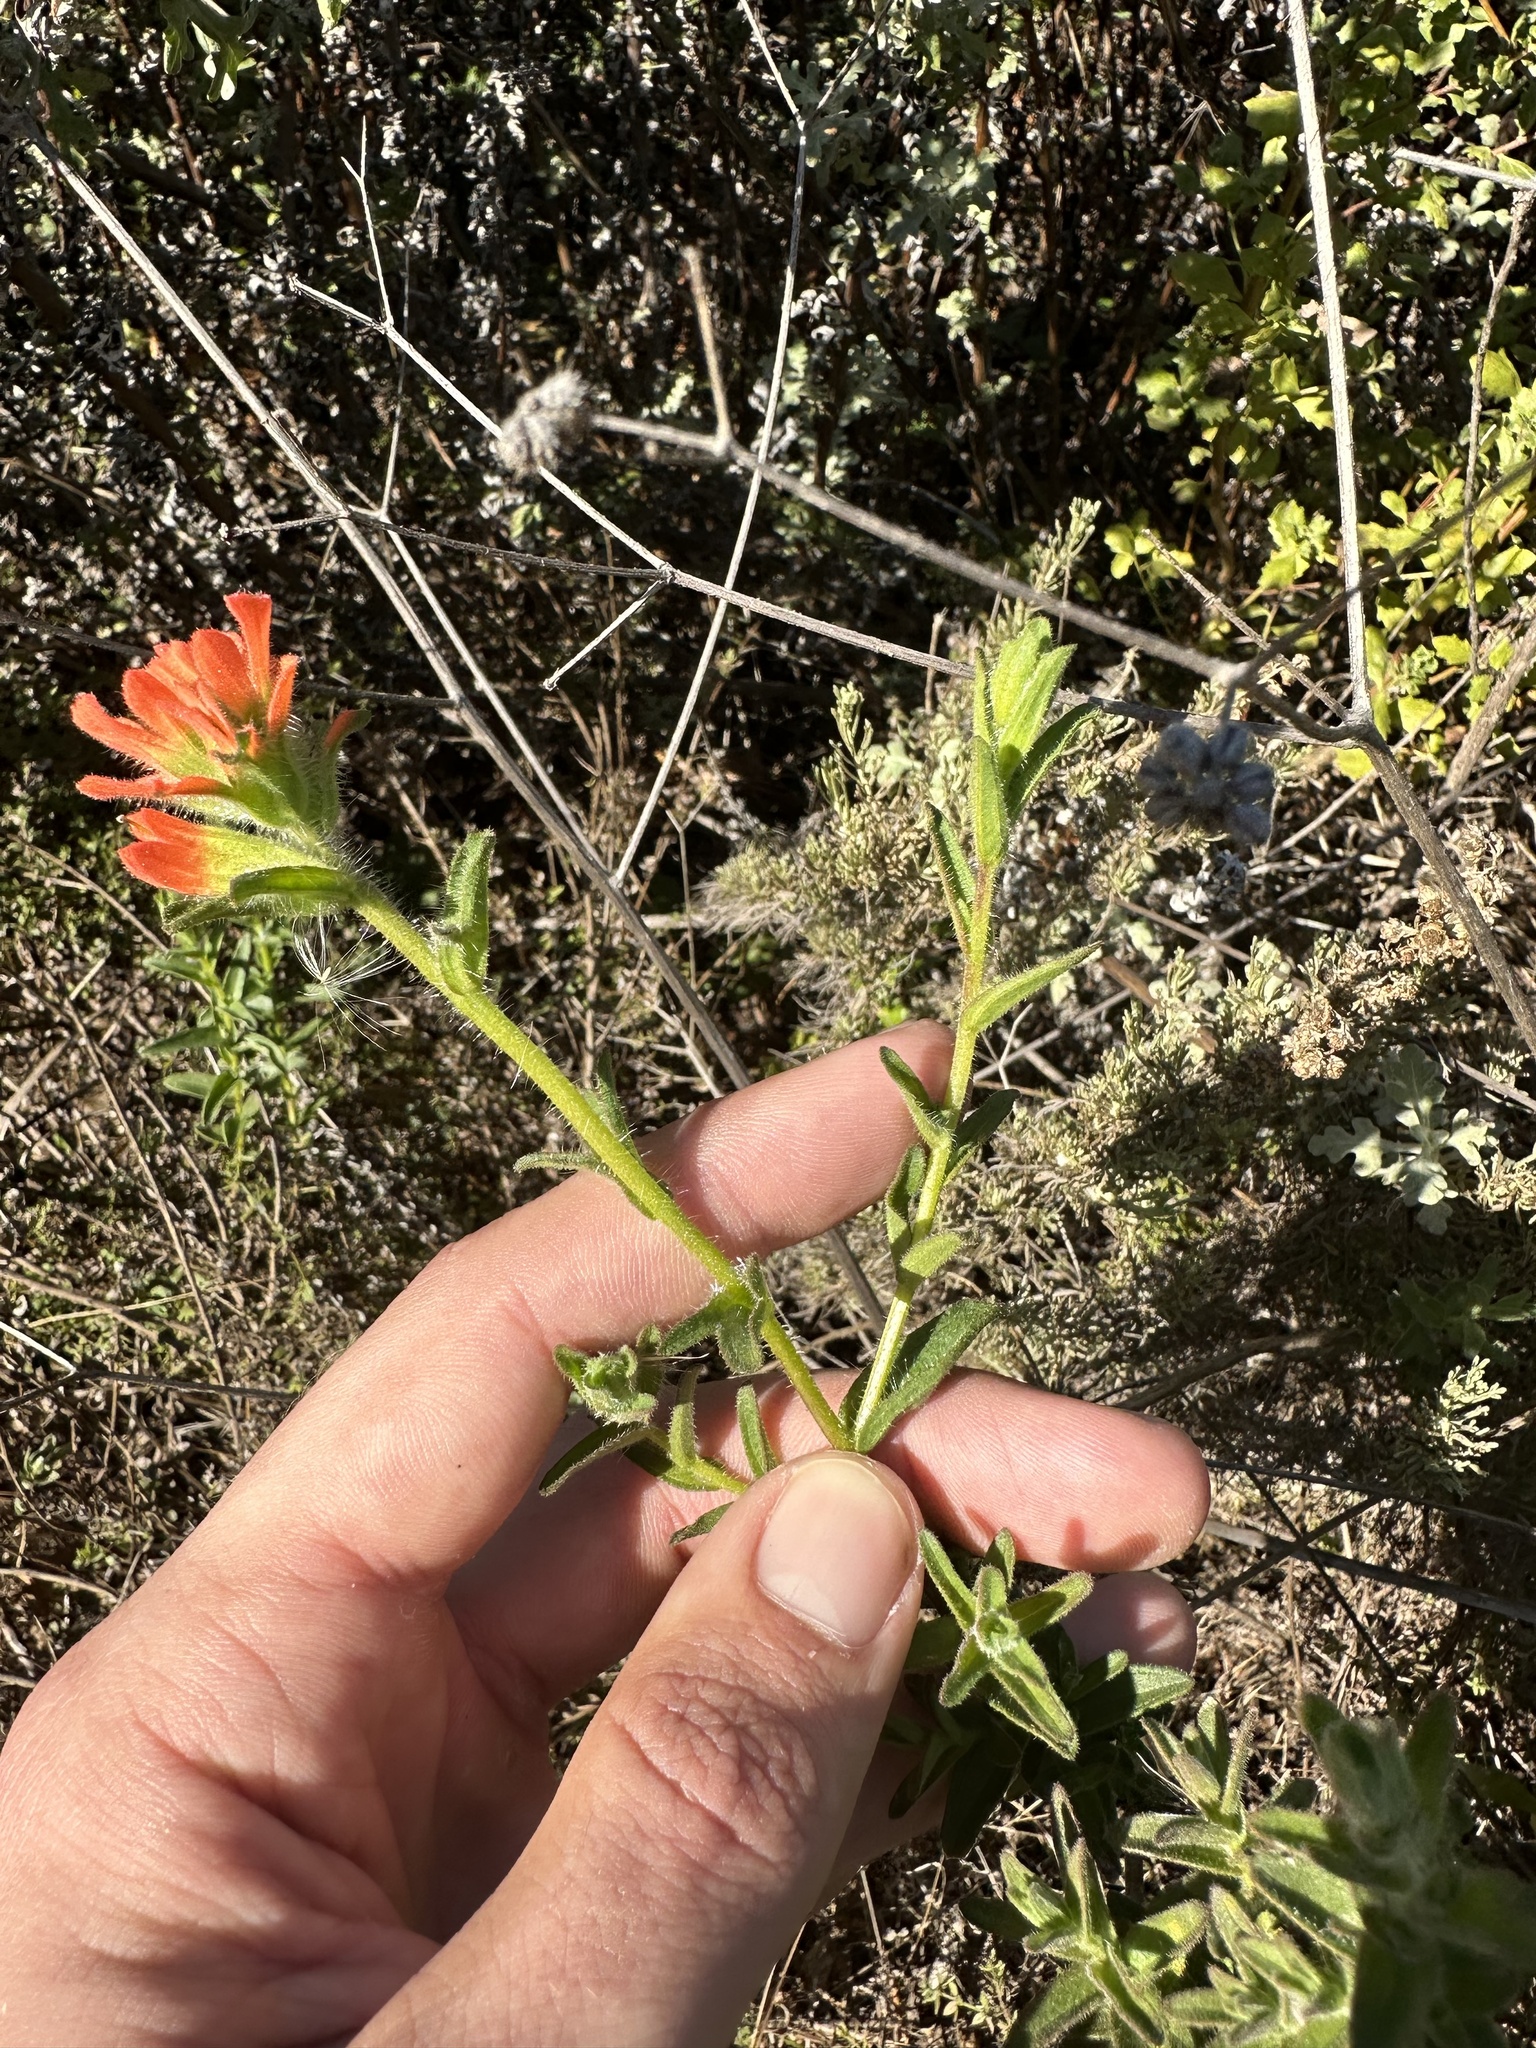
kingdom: Plantae
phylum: Tracheophyta
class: Magnoliopsida
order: Lamiales
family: Orobanchaceae
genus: Castilleja
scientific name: Castilleja affinis
